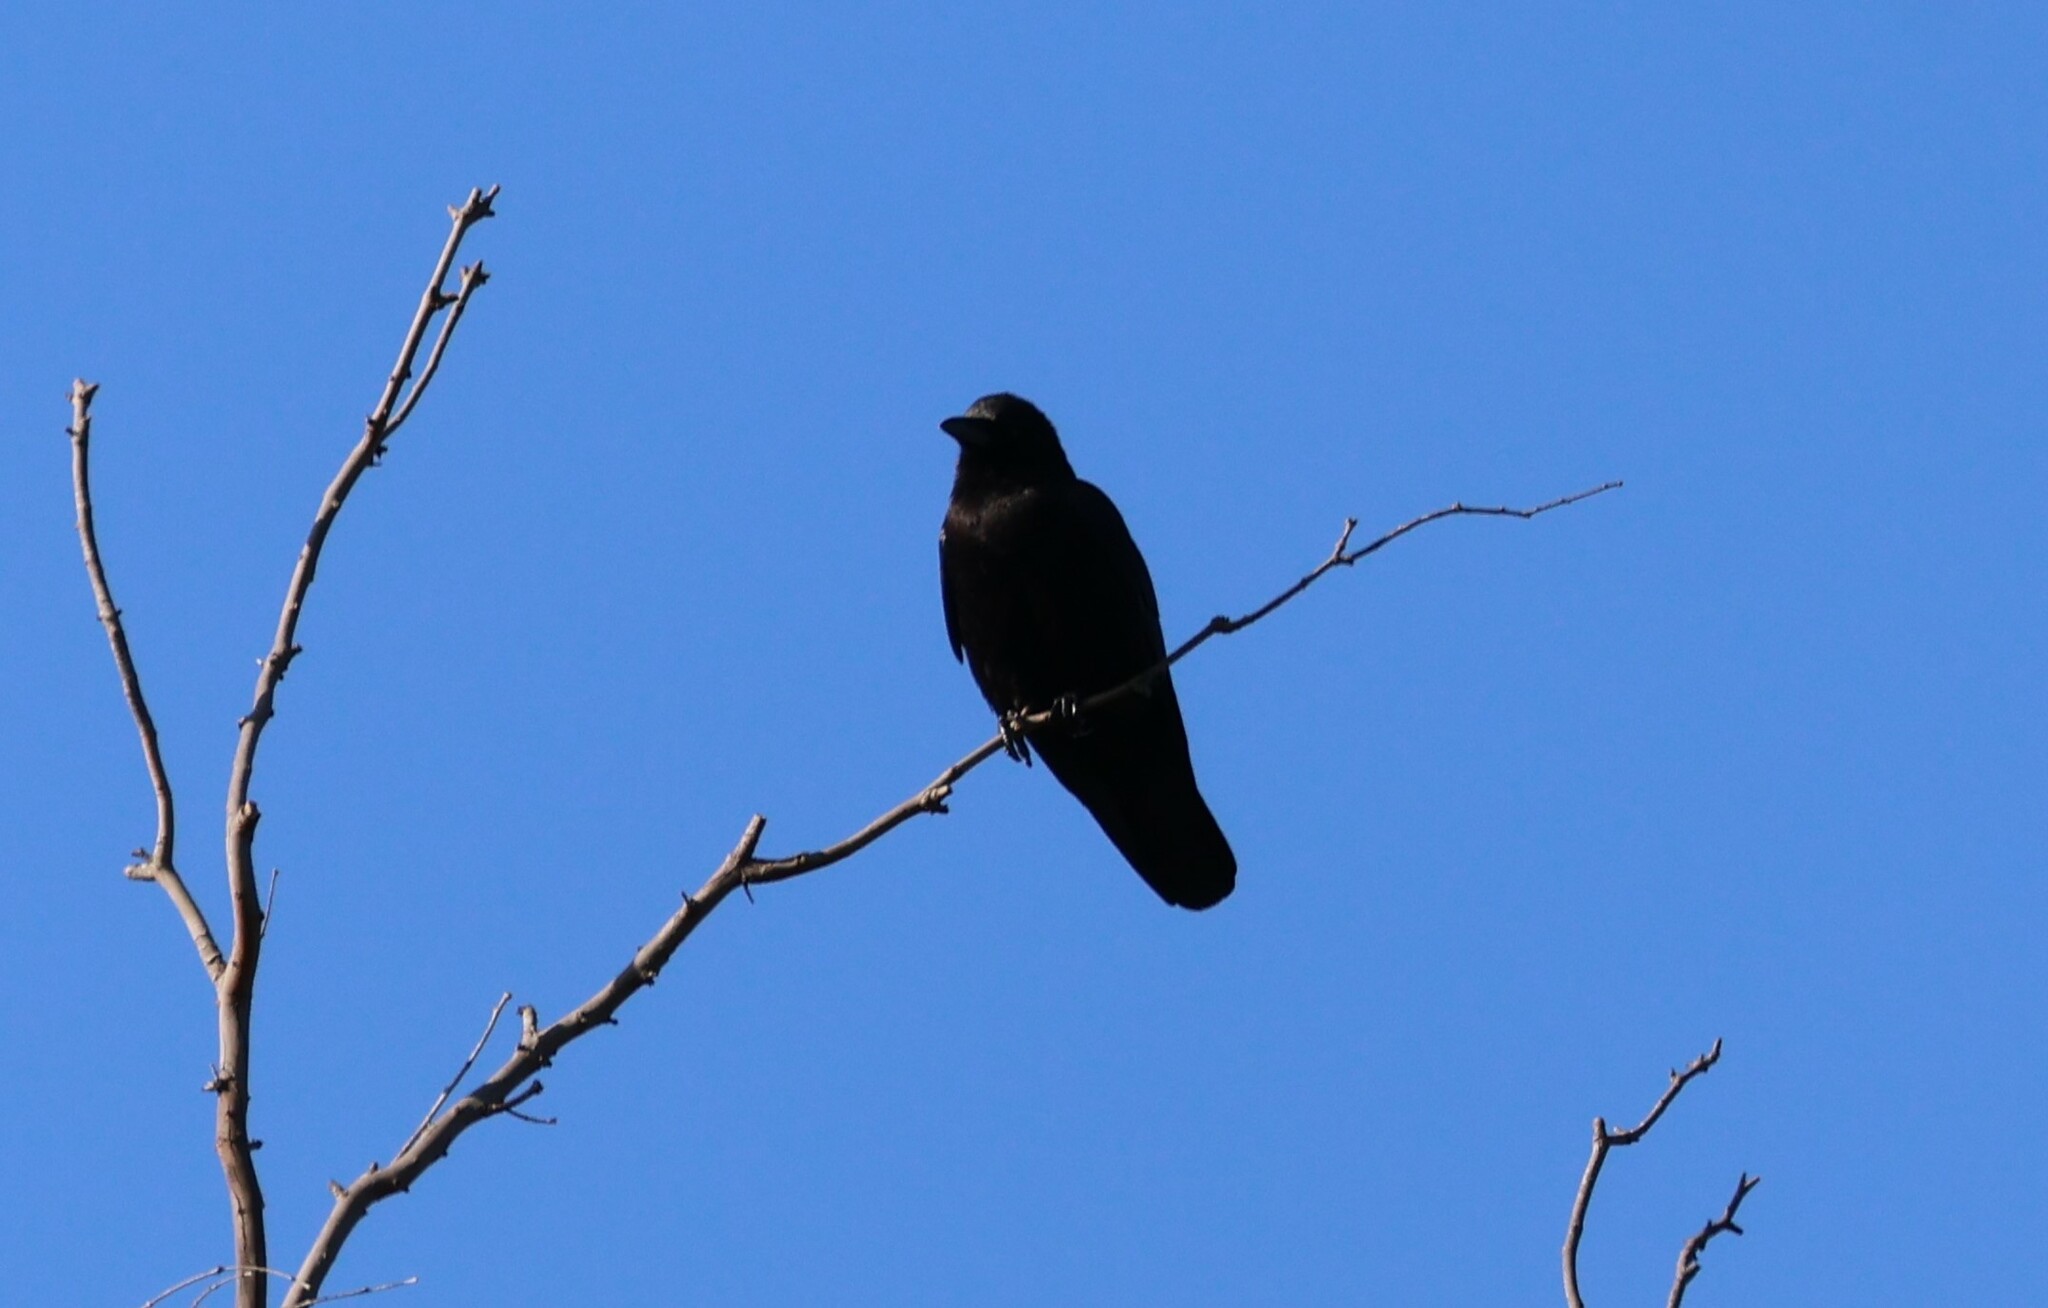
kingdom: Animalia
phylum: Chordata
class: Aves
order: Passeriformes
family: Corvidae
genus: Corvus
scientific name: Corvus brachyrhynchos
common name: American crow
